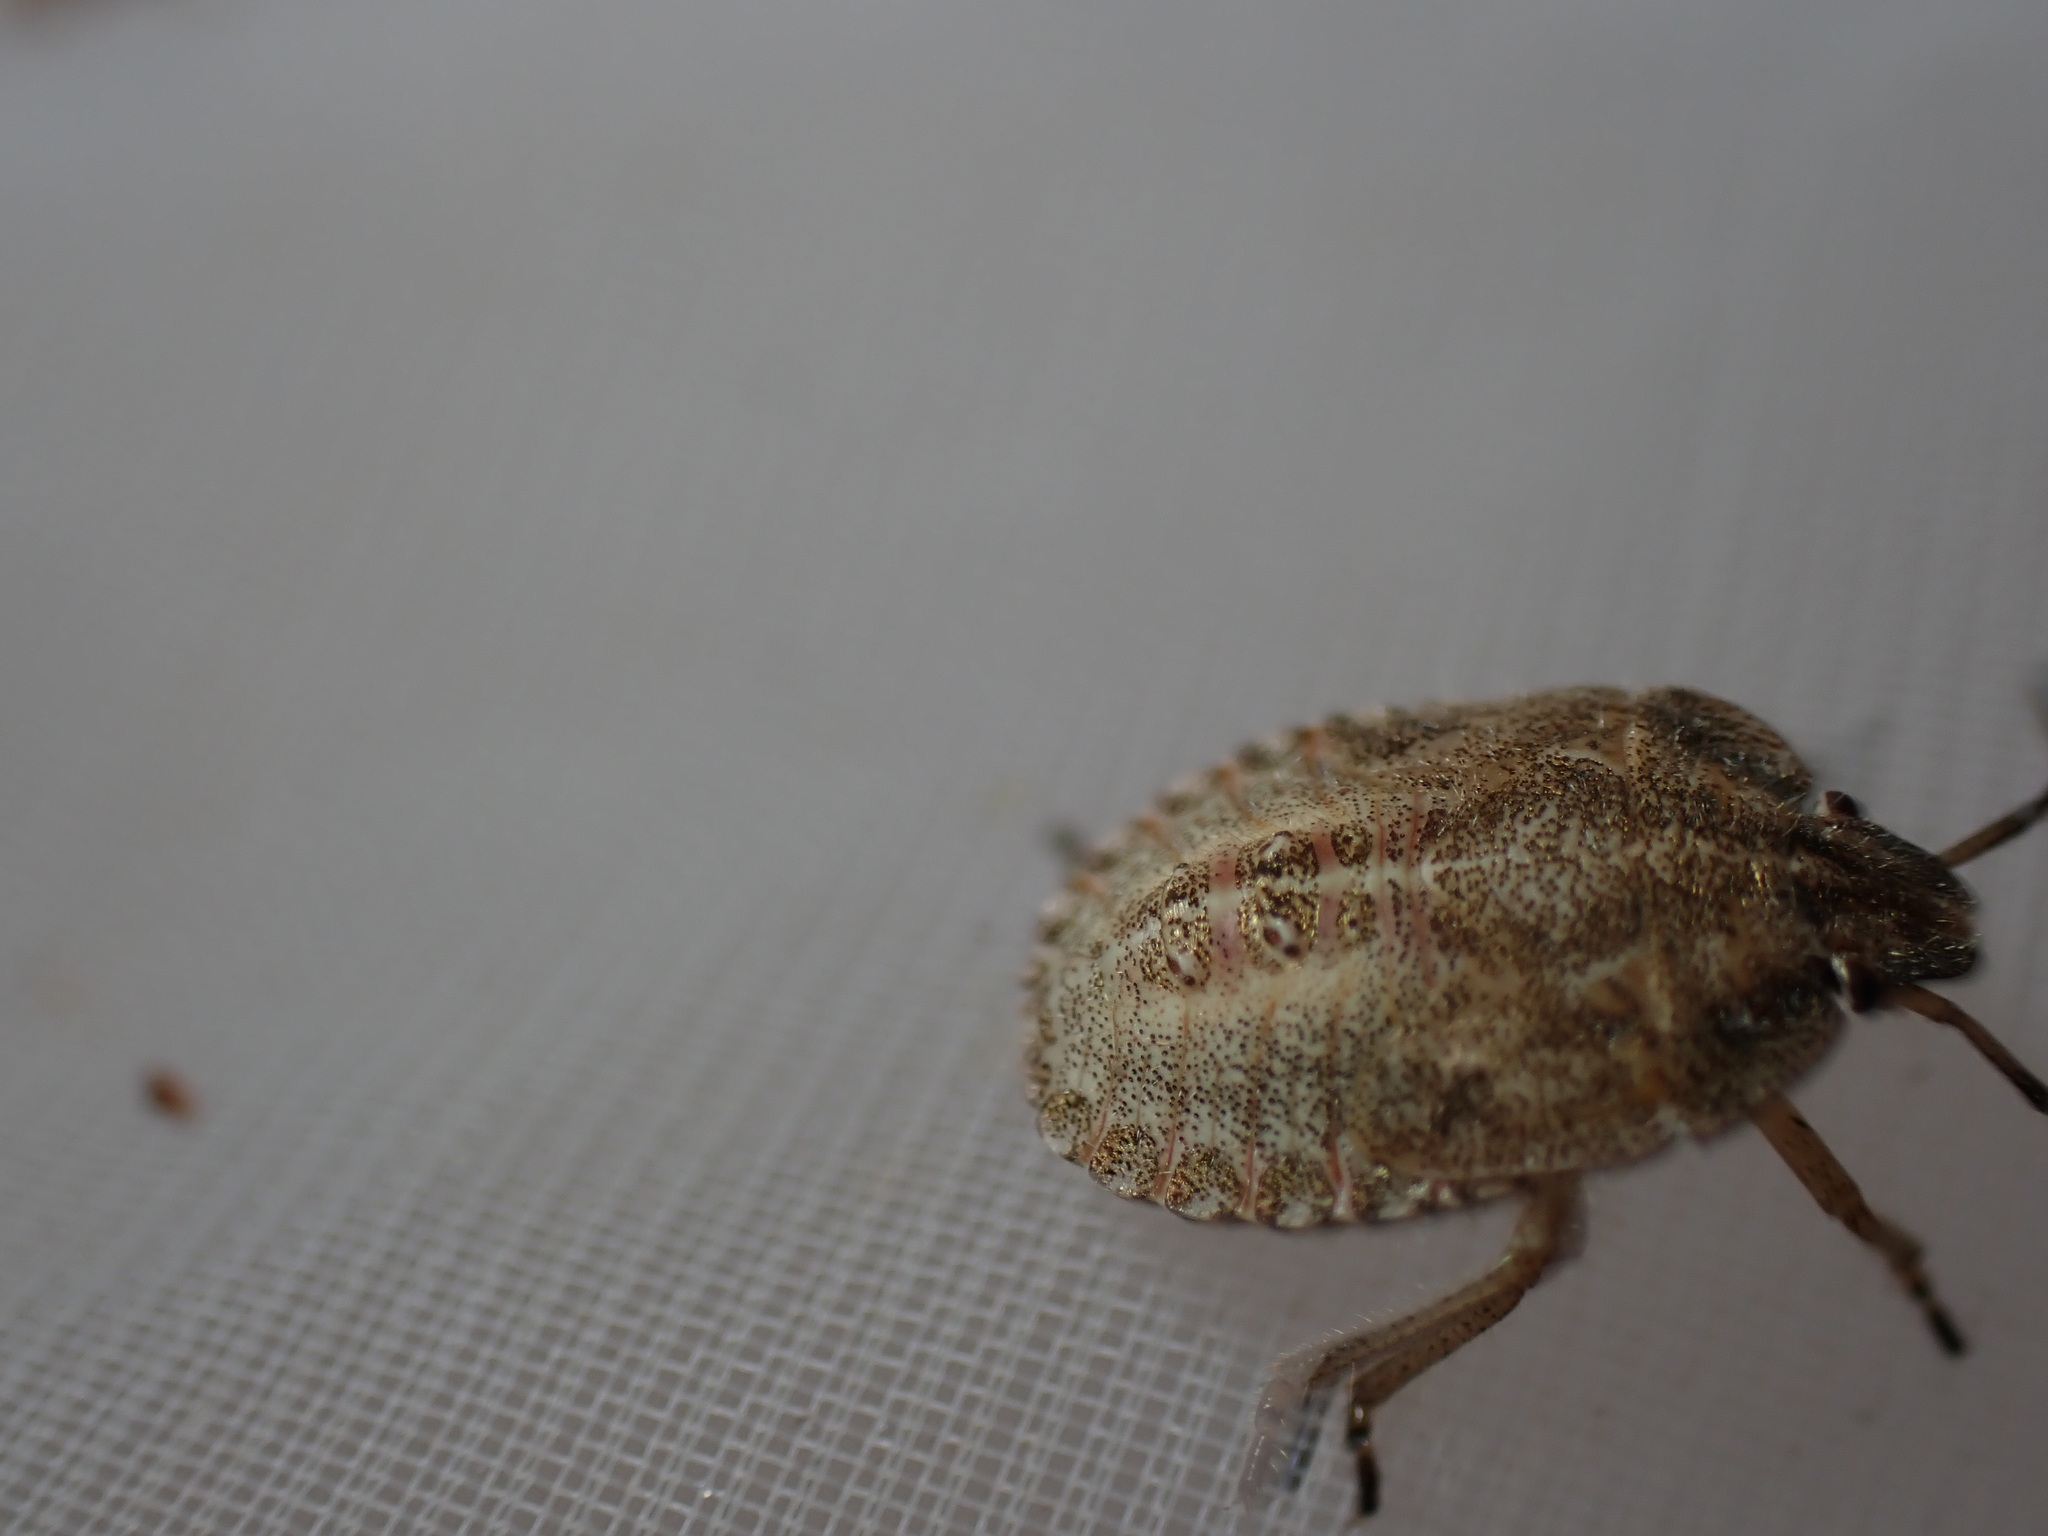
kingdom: Animalia
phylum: Arthropoda
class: Insecta
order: Hemiptera
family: Pentatomidae
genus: Dolycoris
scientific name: Dolycoris baccarum
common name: Sloe bug
